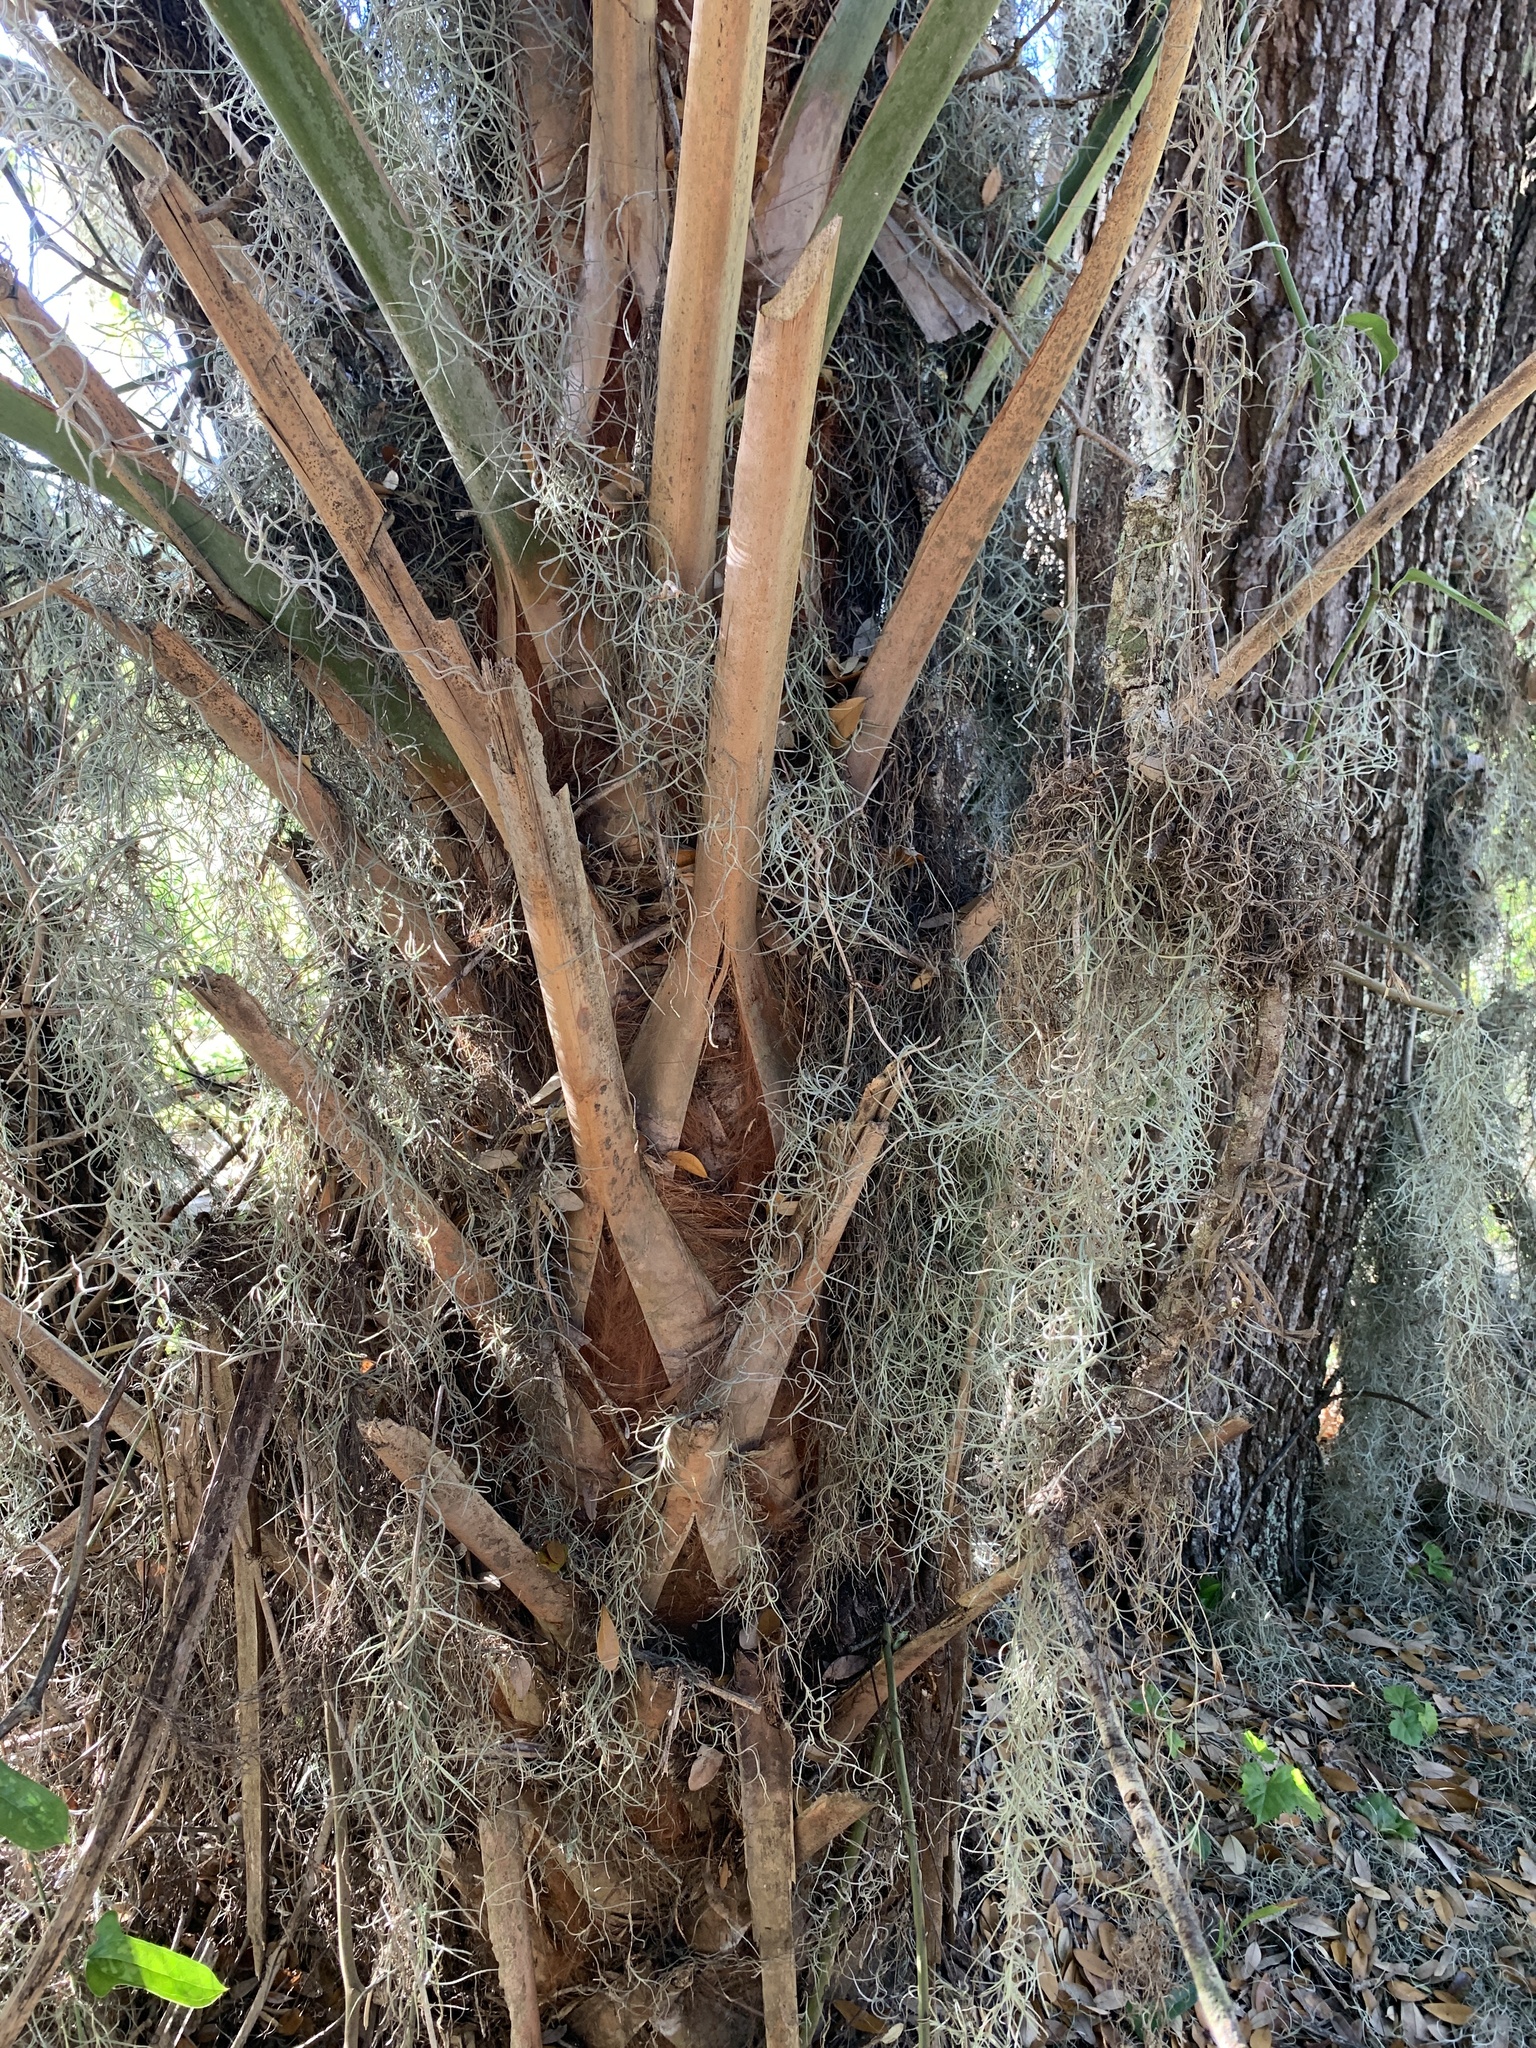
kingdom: Plantae
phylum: Tracheophyta
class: Liliopsida
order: Poales
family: Bromeliaceae
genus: Tillandsia
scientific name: Tillandsia usneoides
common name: Spanish moss
